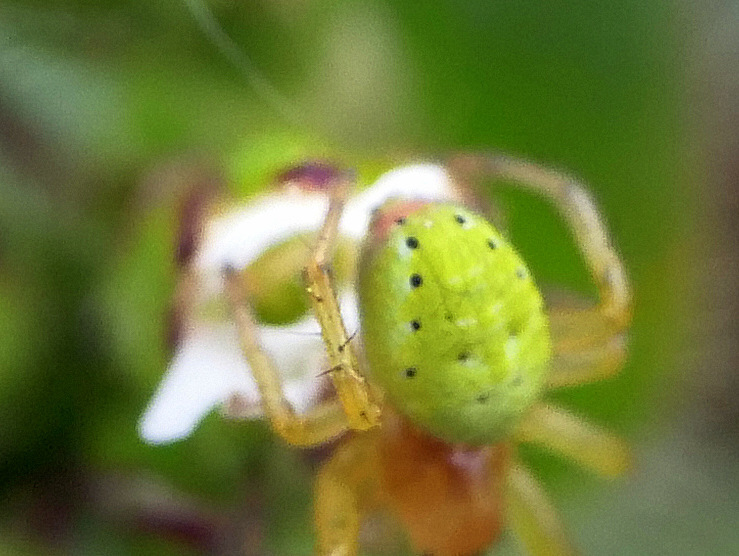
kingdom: Animalia
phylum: Arthropoda
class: Arachnida
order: Araneae
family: Araneidae
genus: Araniella
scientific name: Araniella
